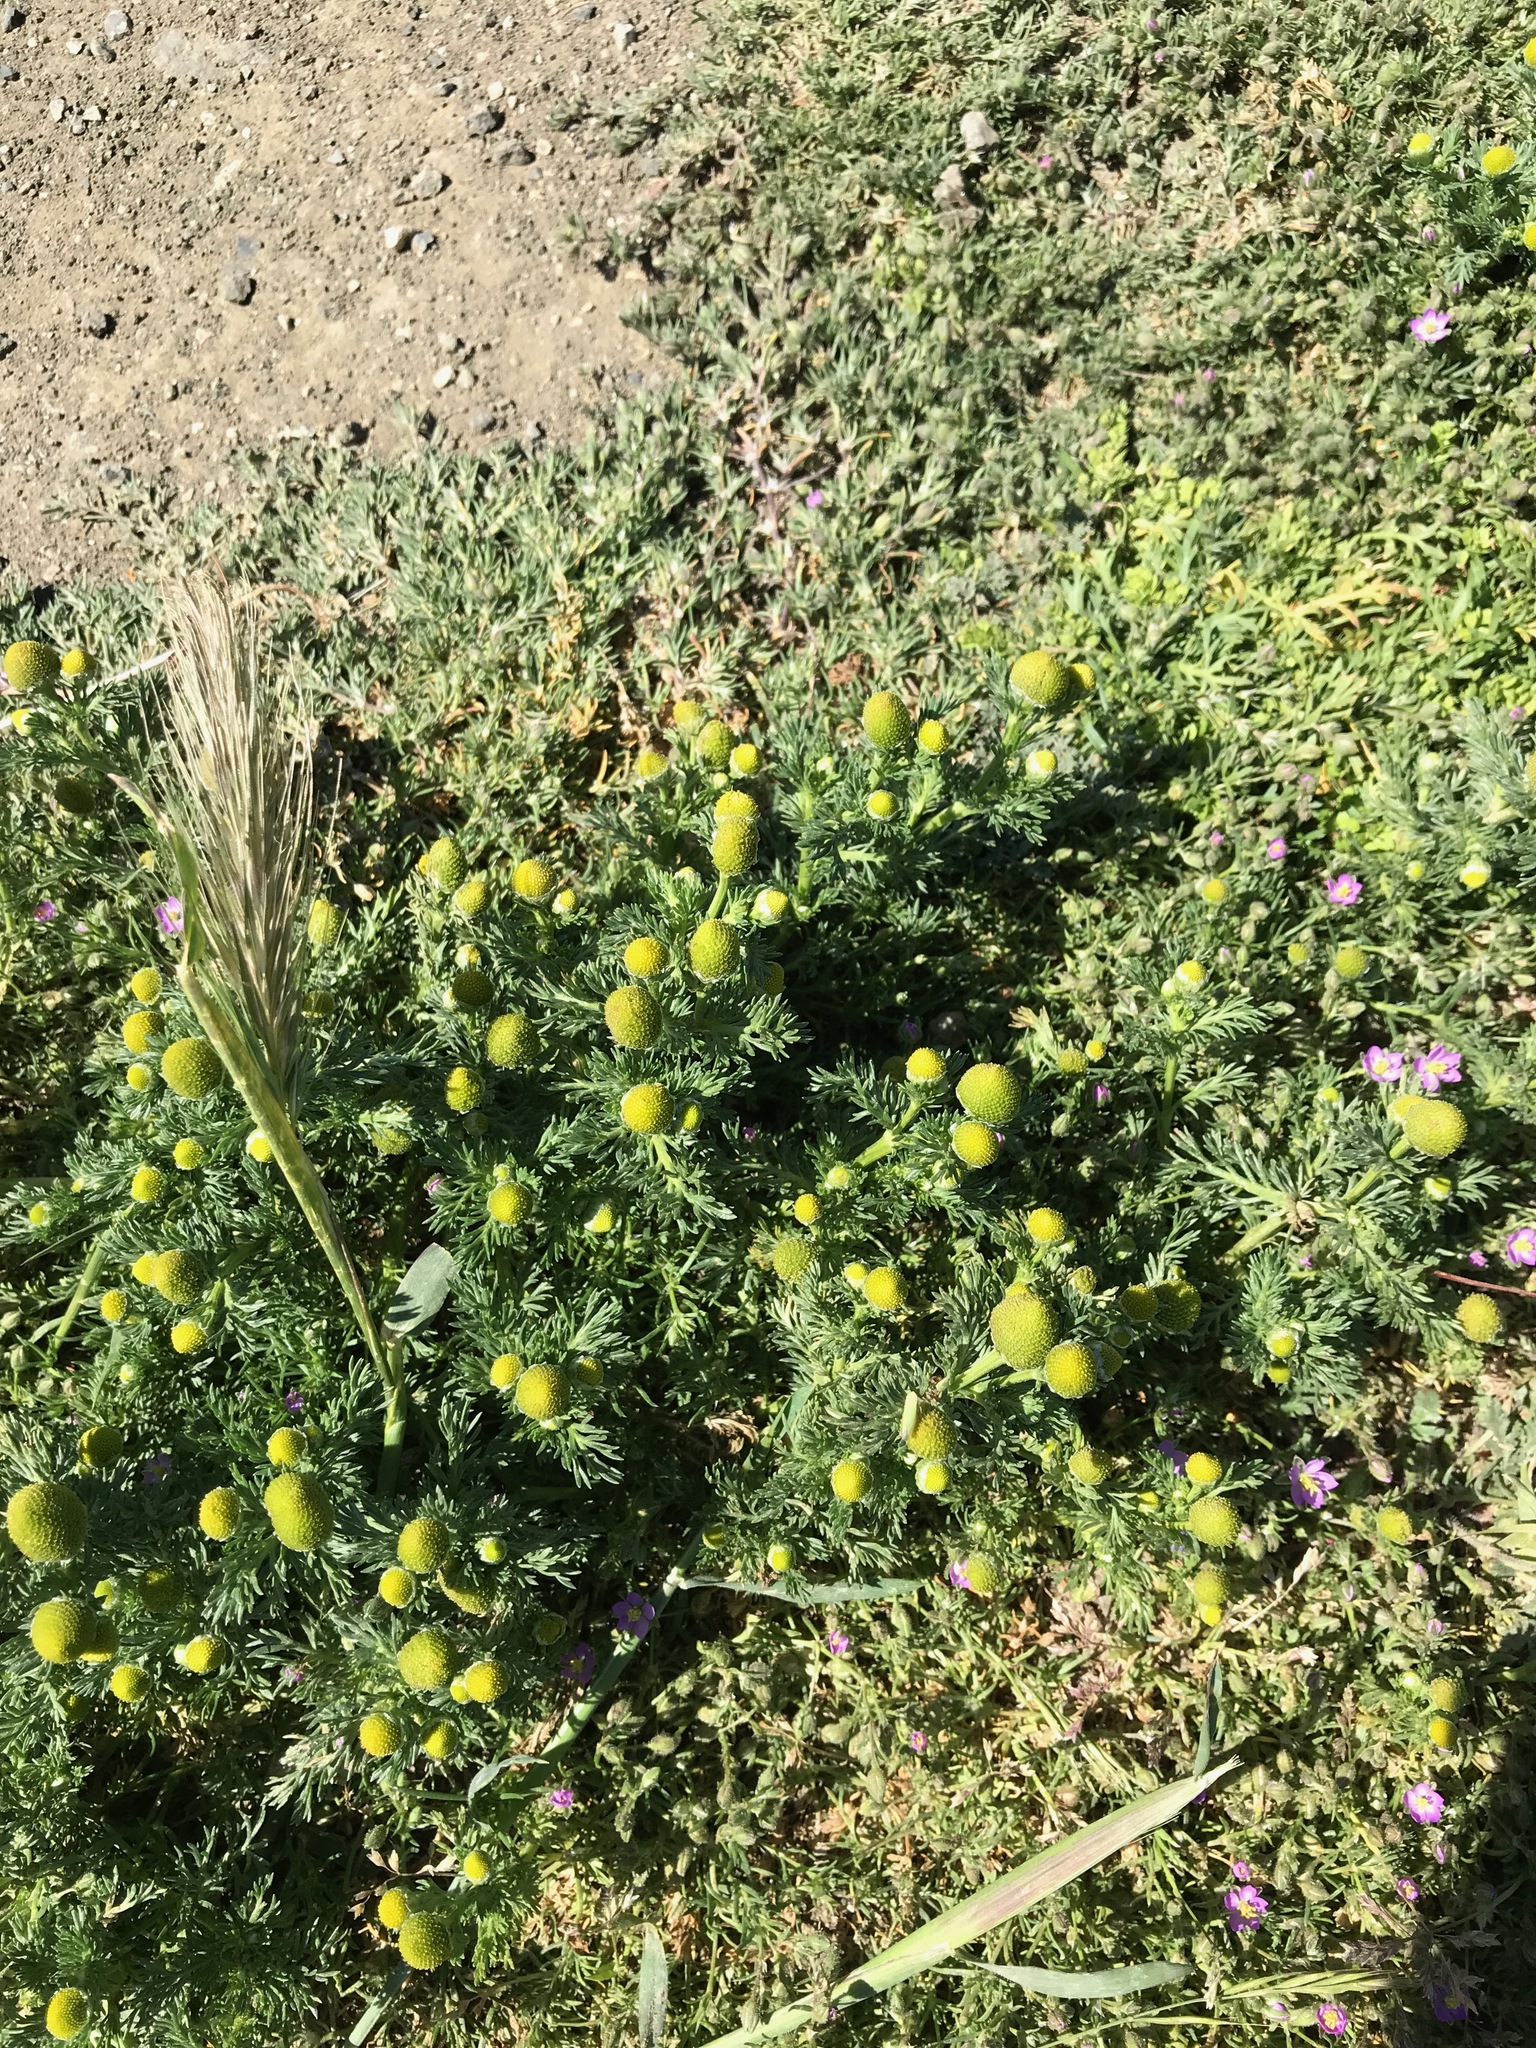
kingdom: Plantae
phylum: Tracheophyta
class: Magnoliopsida
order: Asterales
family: Asteraceae
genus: Matricaria
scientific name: Matricaria discoidea
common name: Disc mayweed
